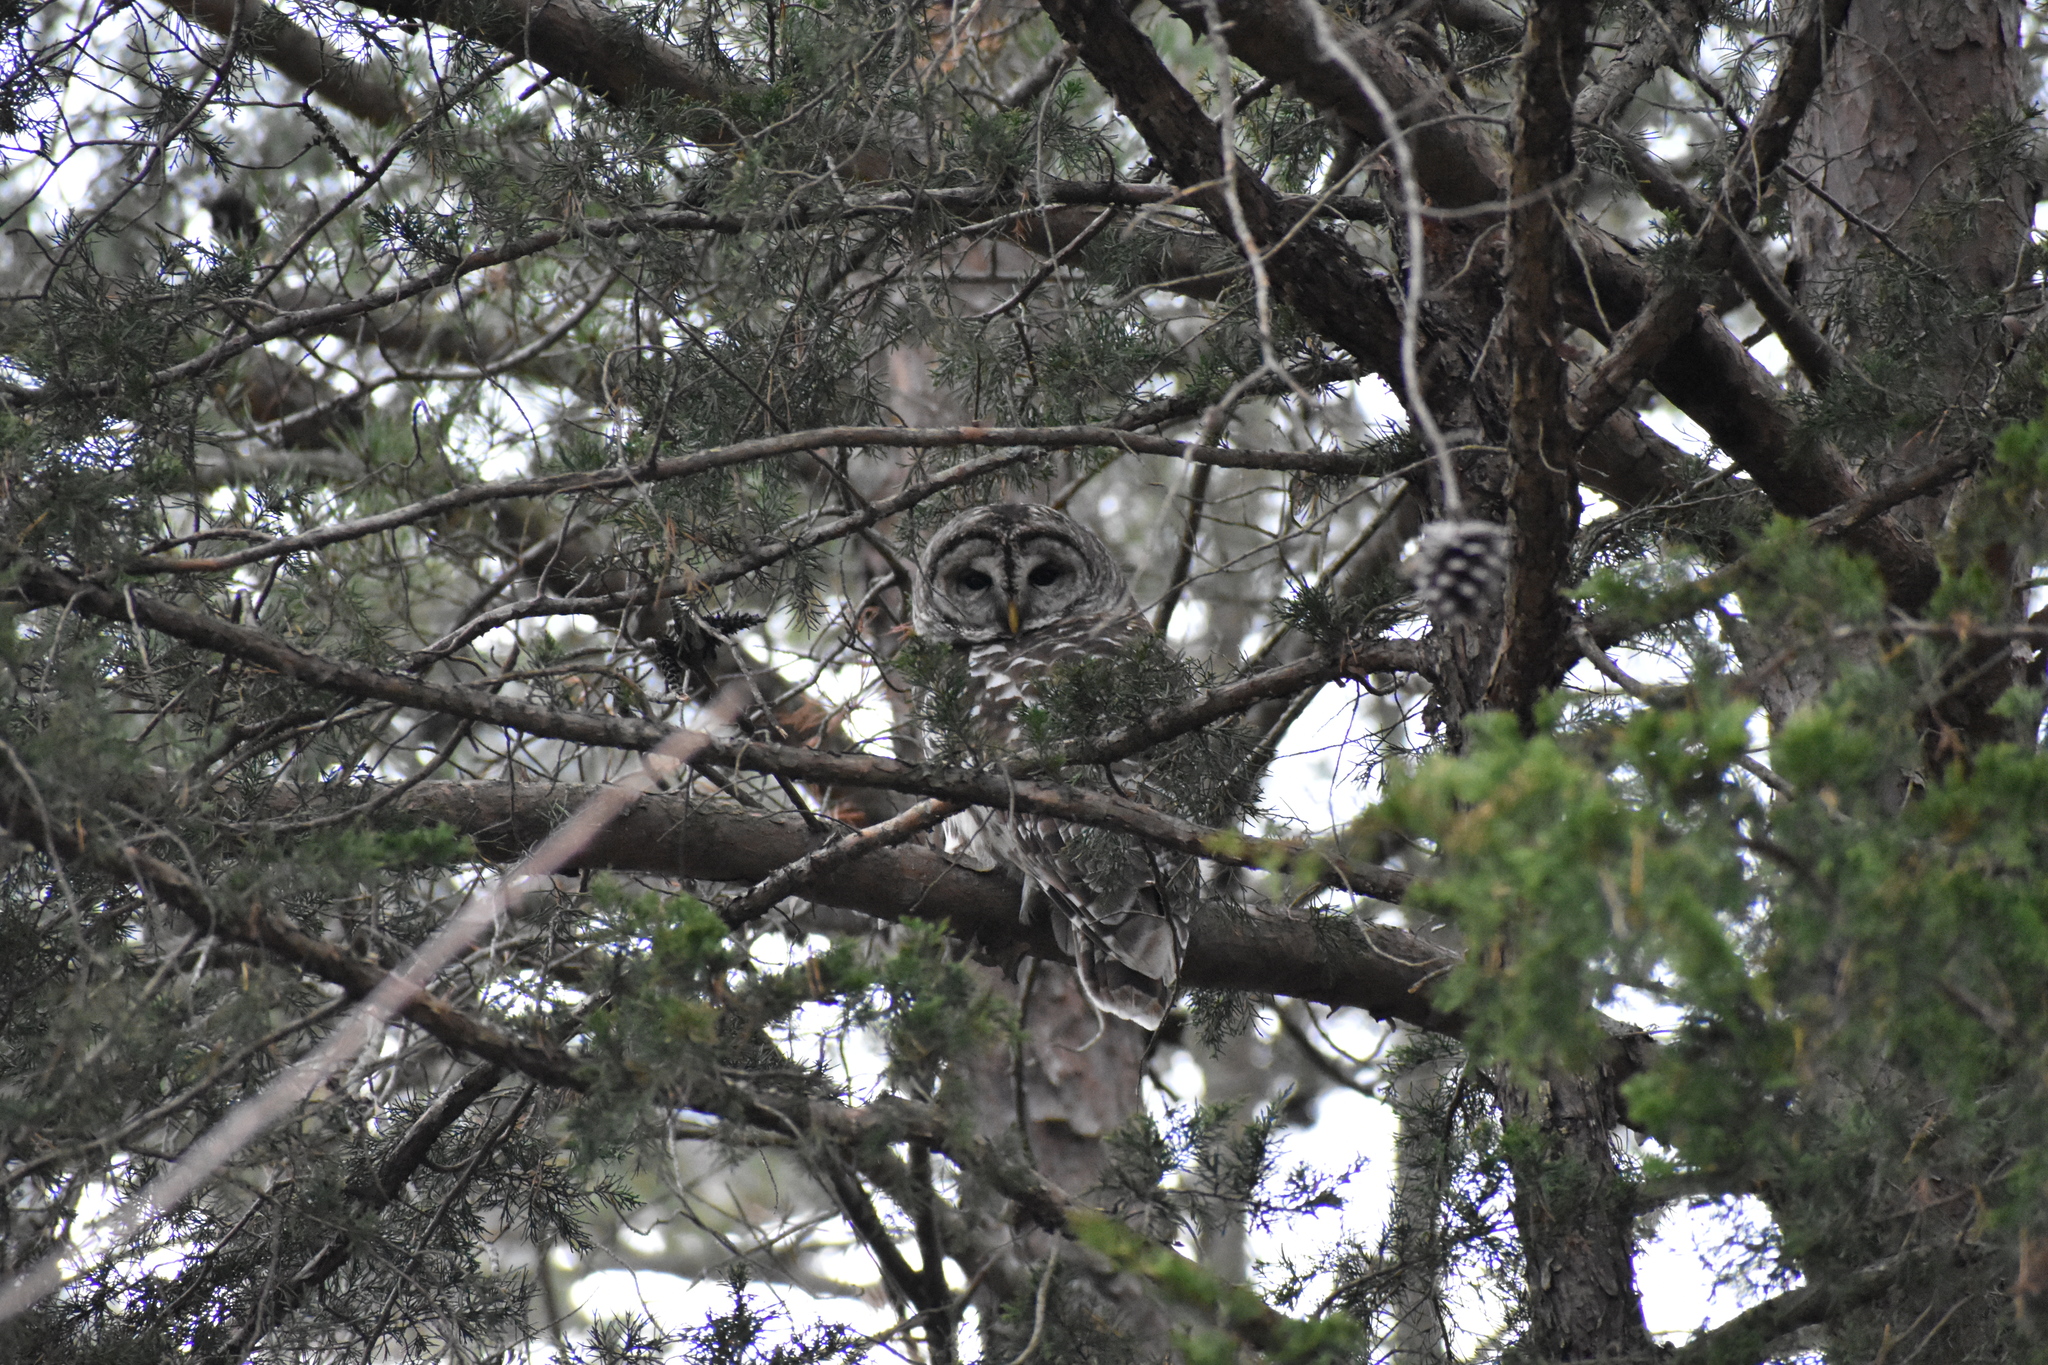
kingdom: Animalia
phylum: Chordata
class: Aves
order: Strigiformes
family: Strigidae
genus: Strix
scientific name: Strix varia
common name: Barred owl
